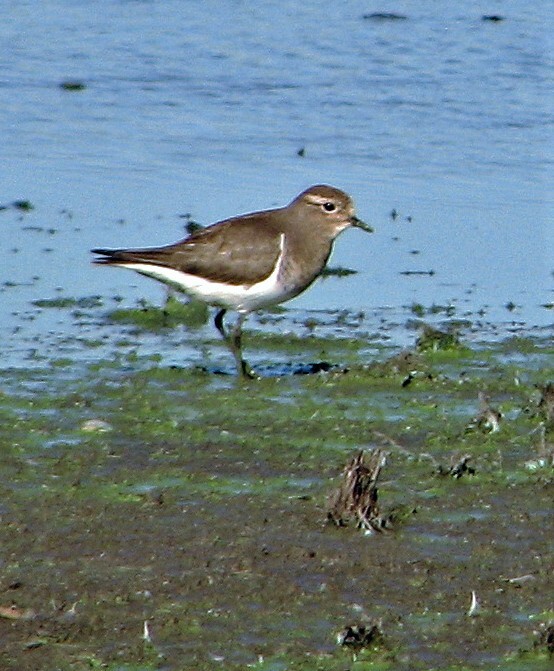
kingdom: Animalia
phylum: Chordata
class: Aves
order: Charadriiformes
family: Charadriidae
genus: Charadrius
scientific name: Charadrius modestus
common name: Rufous-chested plover
